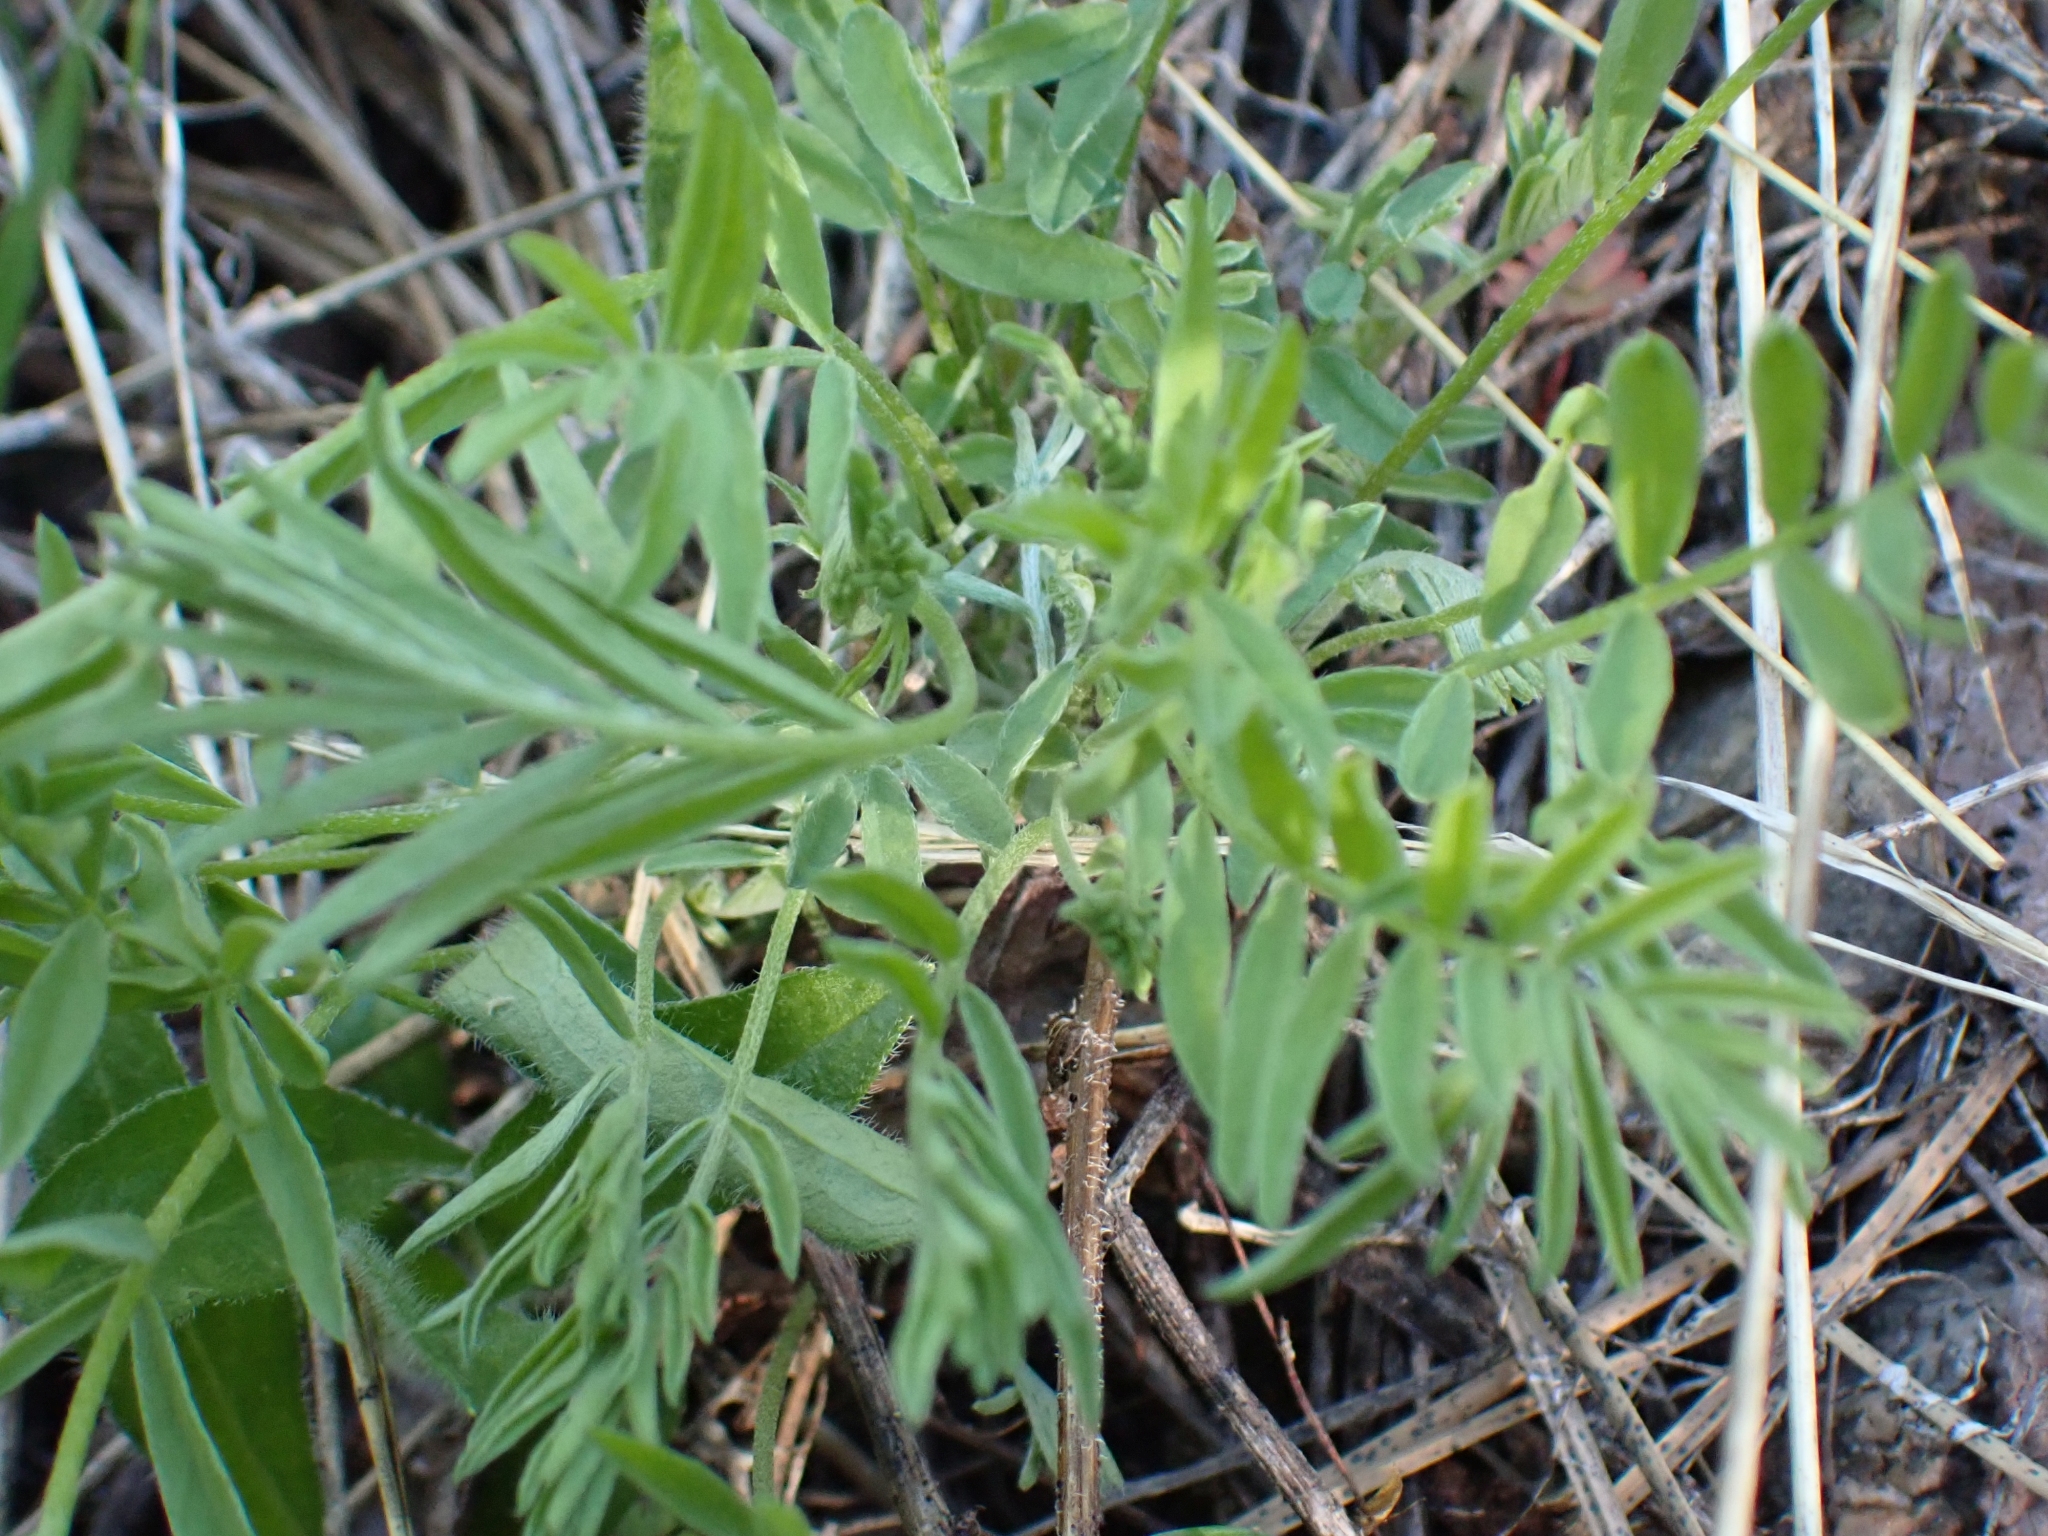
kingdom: Plantae
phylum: Tracheophyta
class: Magnoliopsida
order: Fabales
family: Fabaceae
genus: Astragalus
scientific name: Astragalus miser
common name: Timber milkvetch
